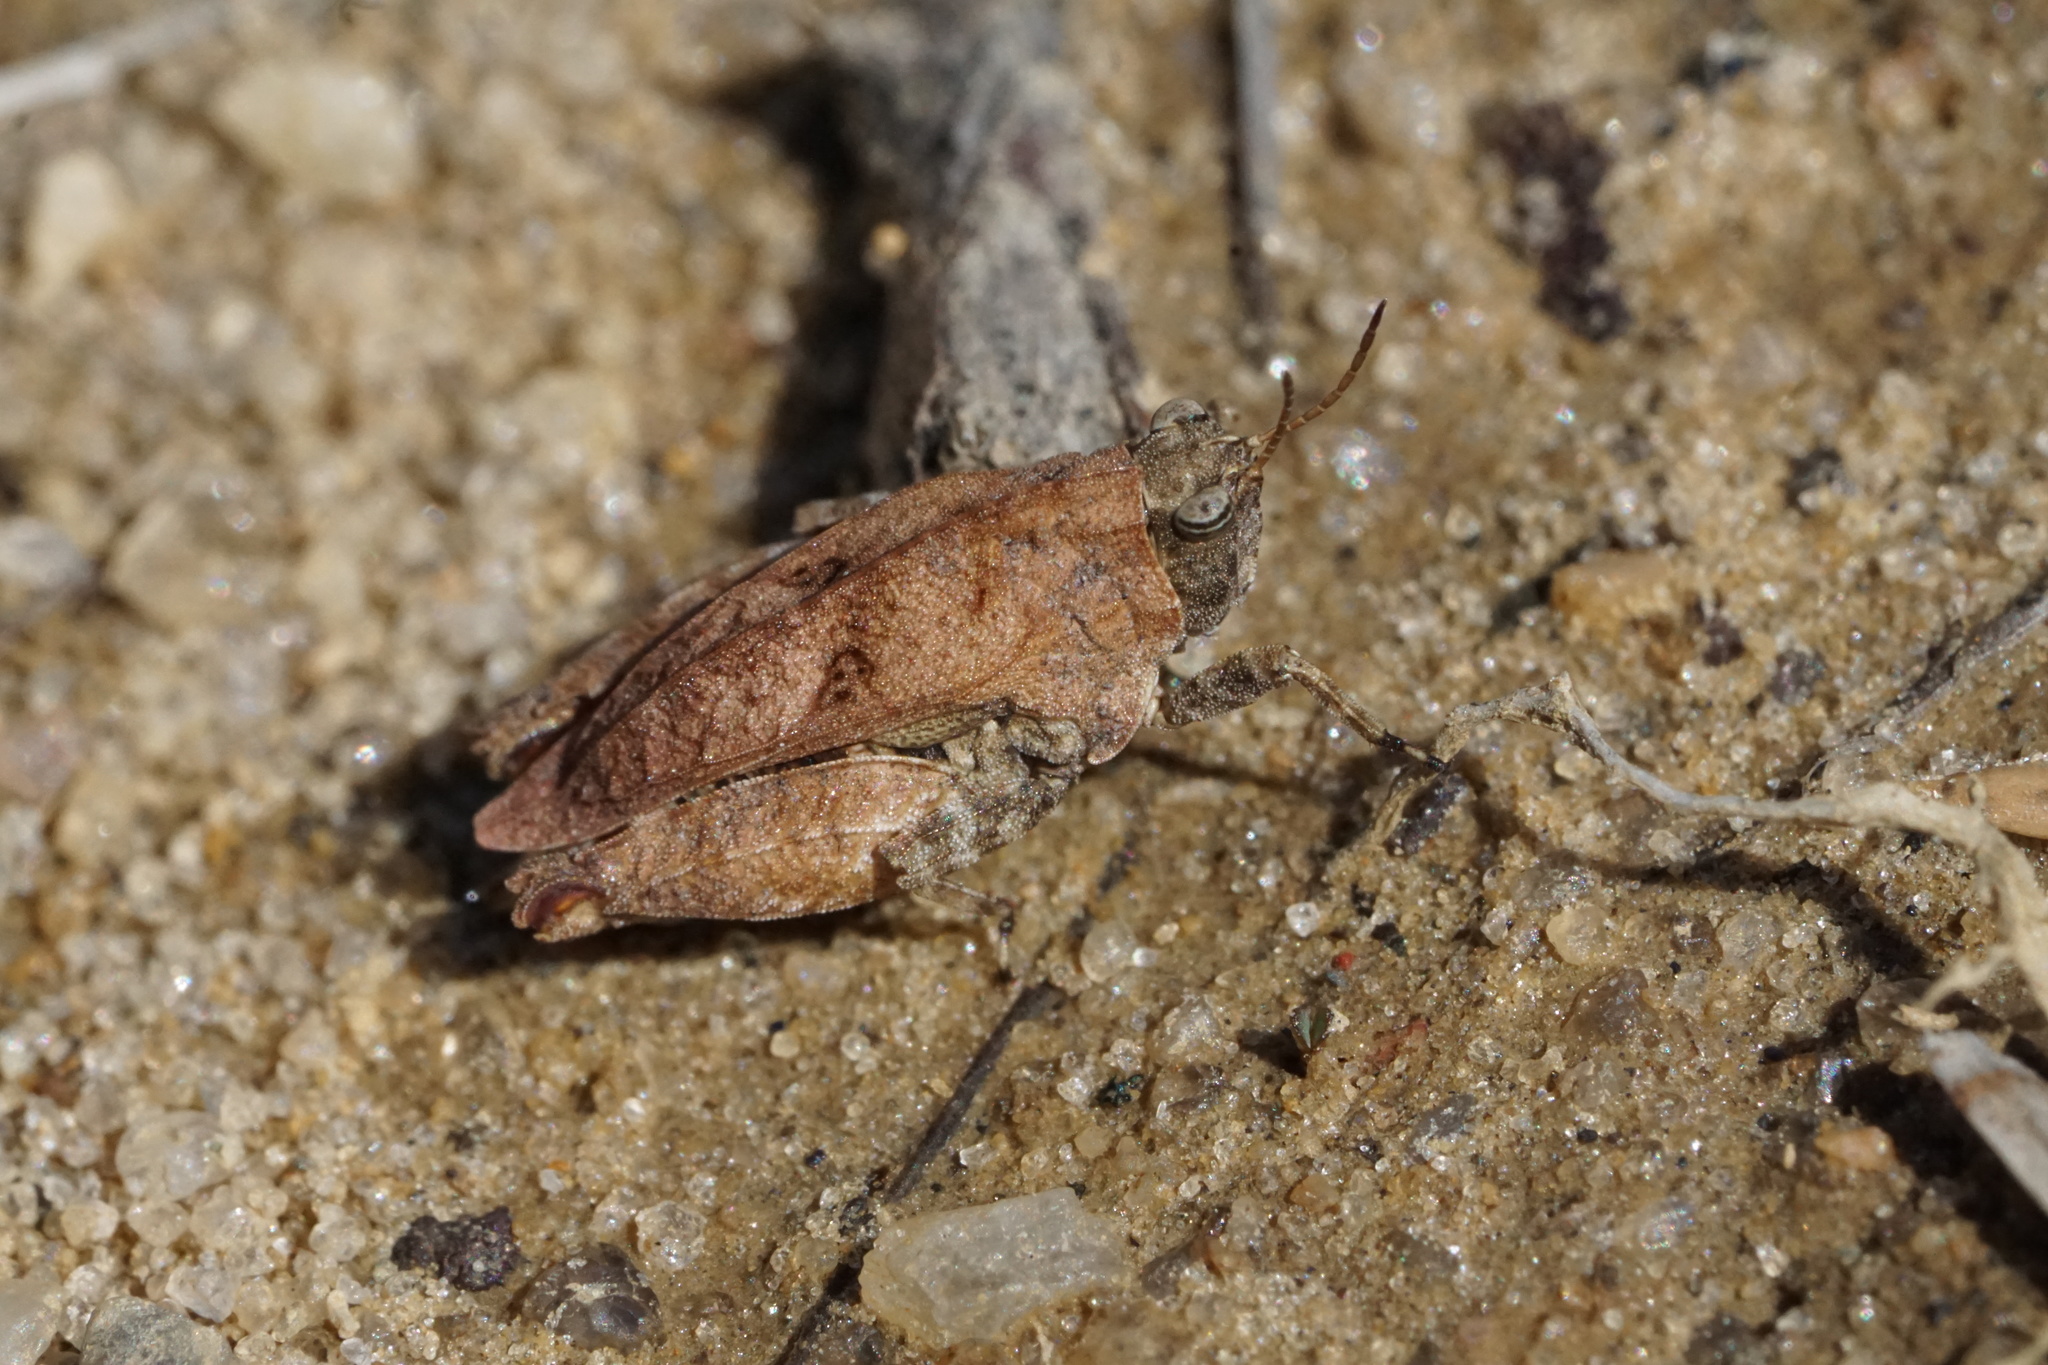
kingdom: Animalia
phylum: Arthropoda
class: Insecta
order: Orthoptera
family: Tetrigidae
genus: Nomotettix
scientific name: Nomotettix cristatus
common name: Crested grouse locust
